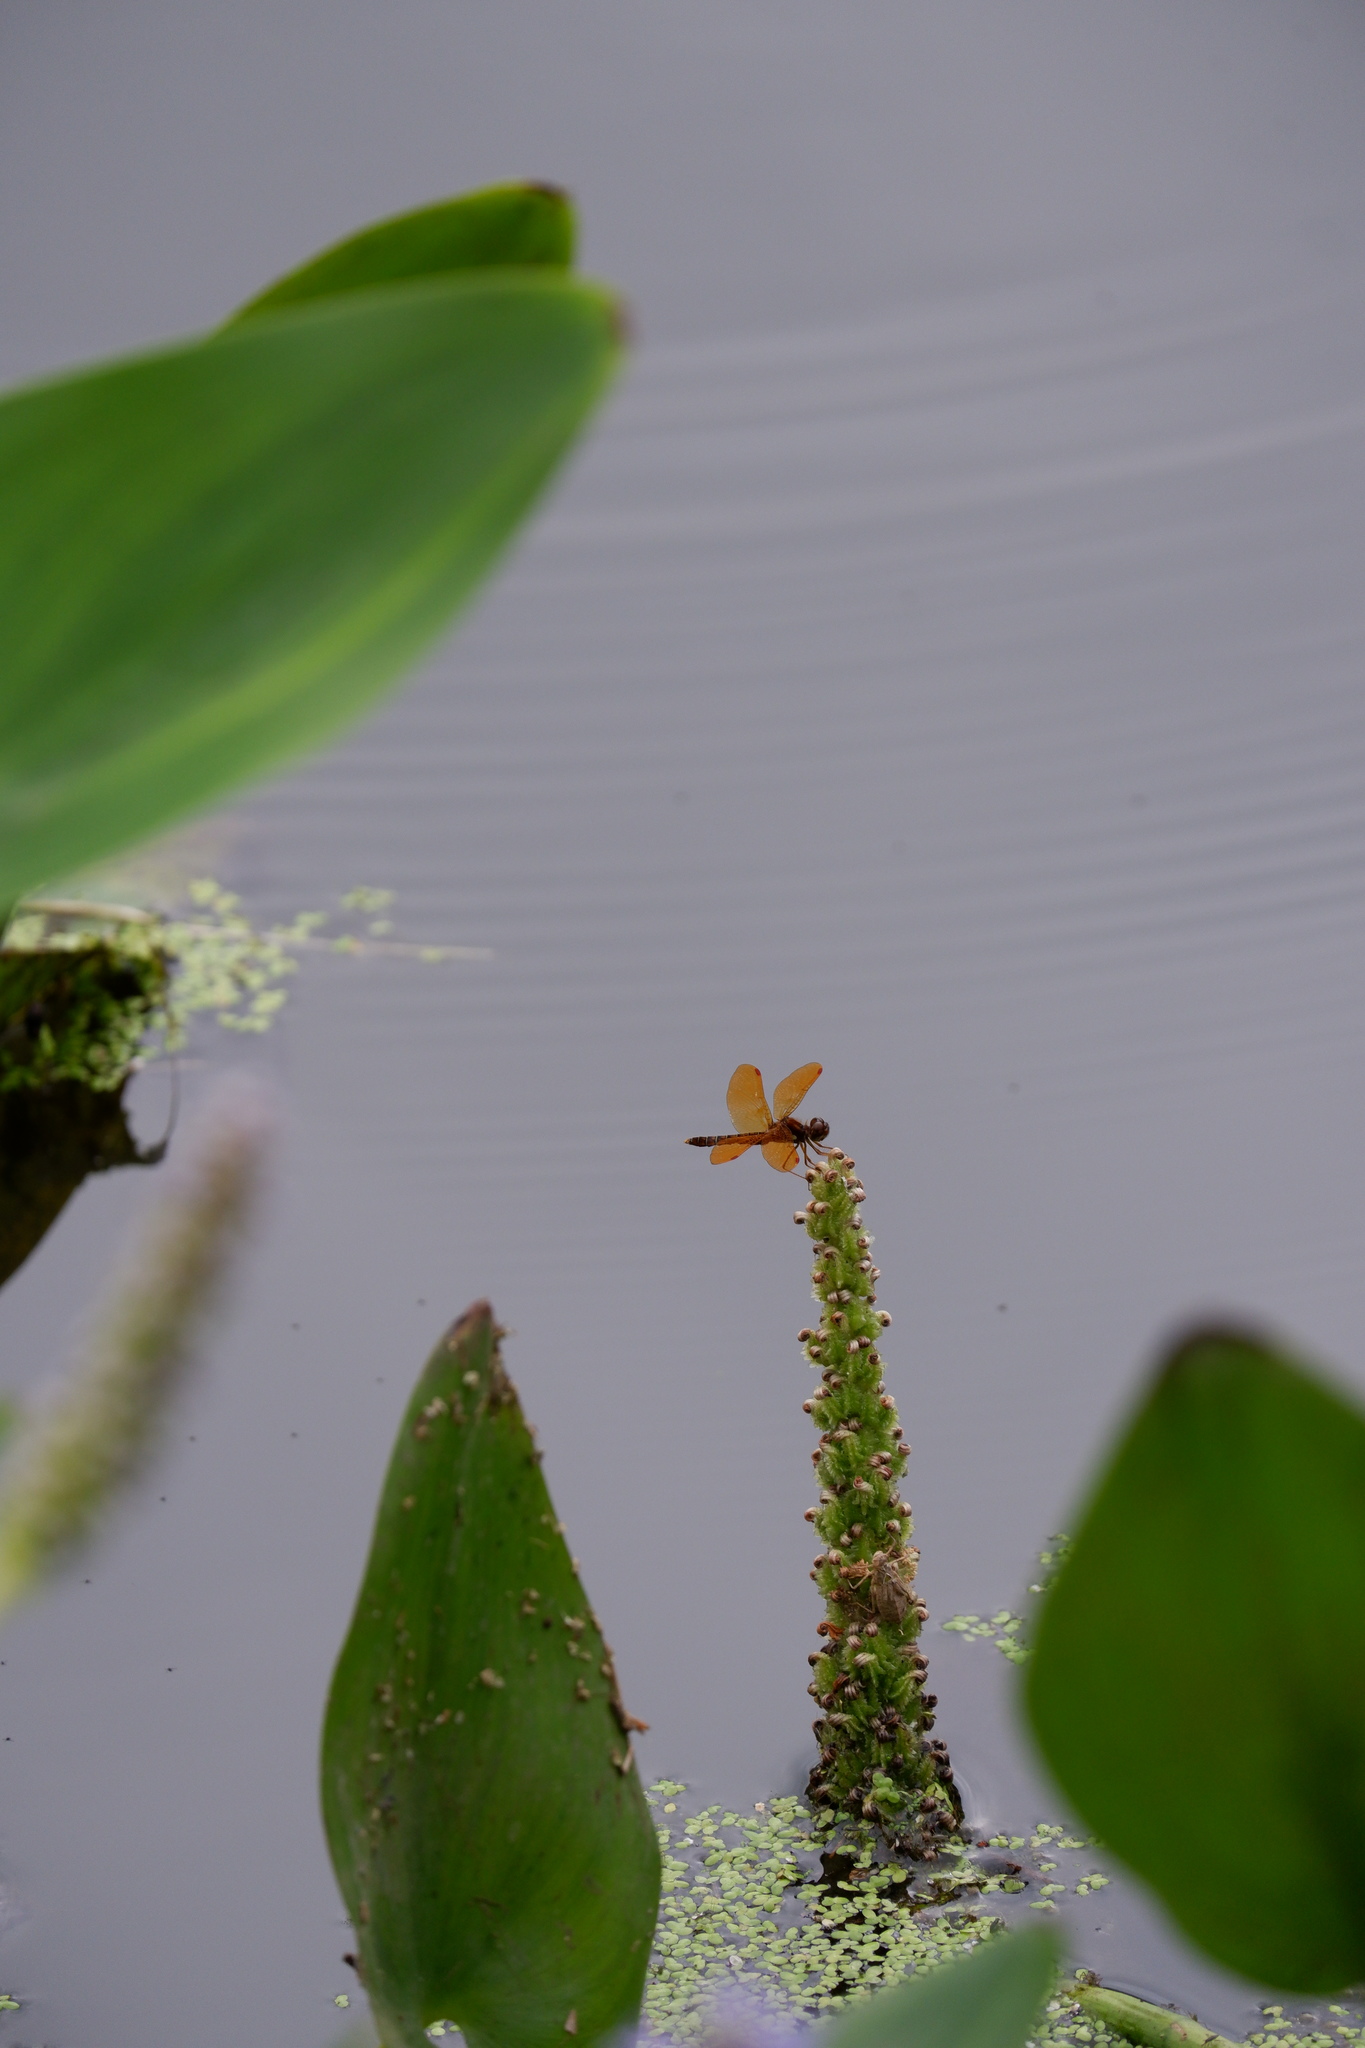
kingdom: Animalia
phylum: Arthropoda
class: Insecta
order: Odonata
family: Libellulidae
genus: Perithemis
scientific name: Perithemis tenera
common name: Eastern amberwing
